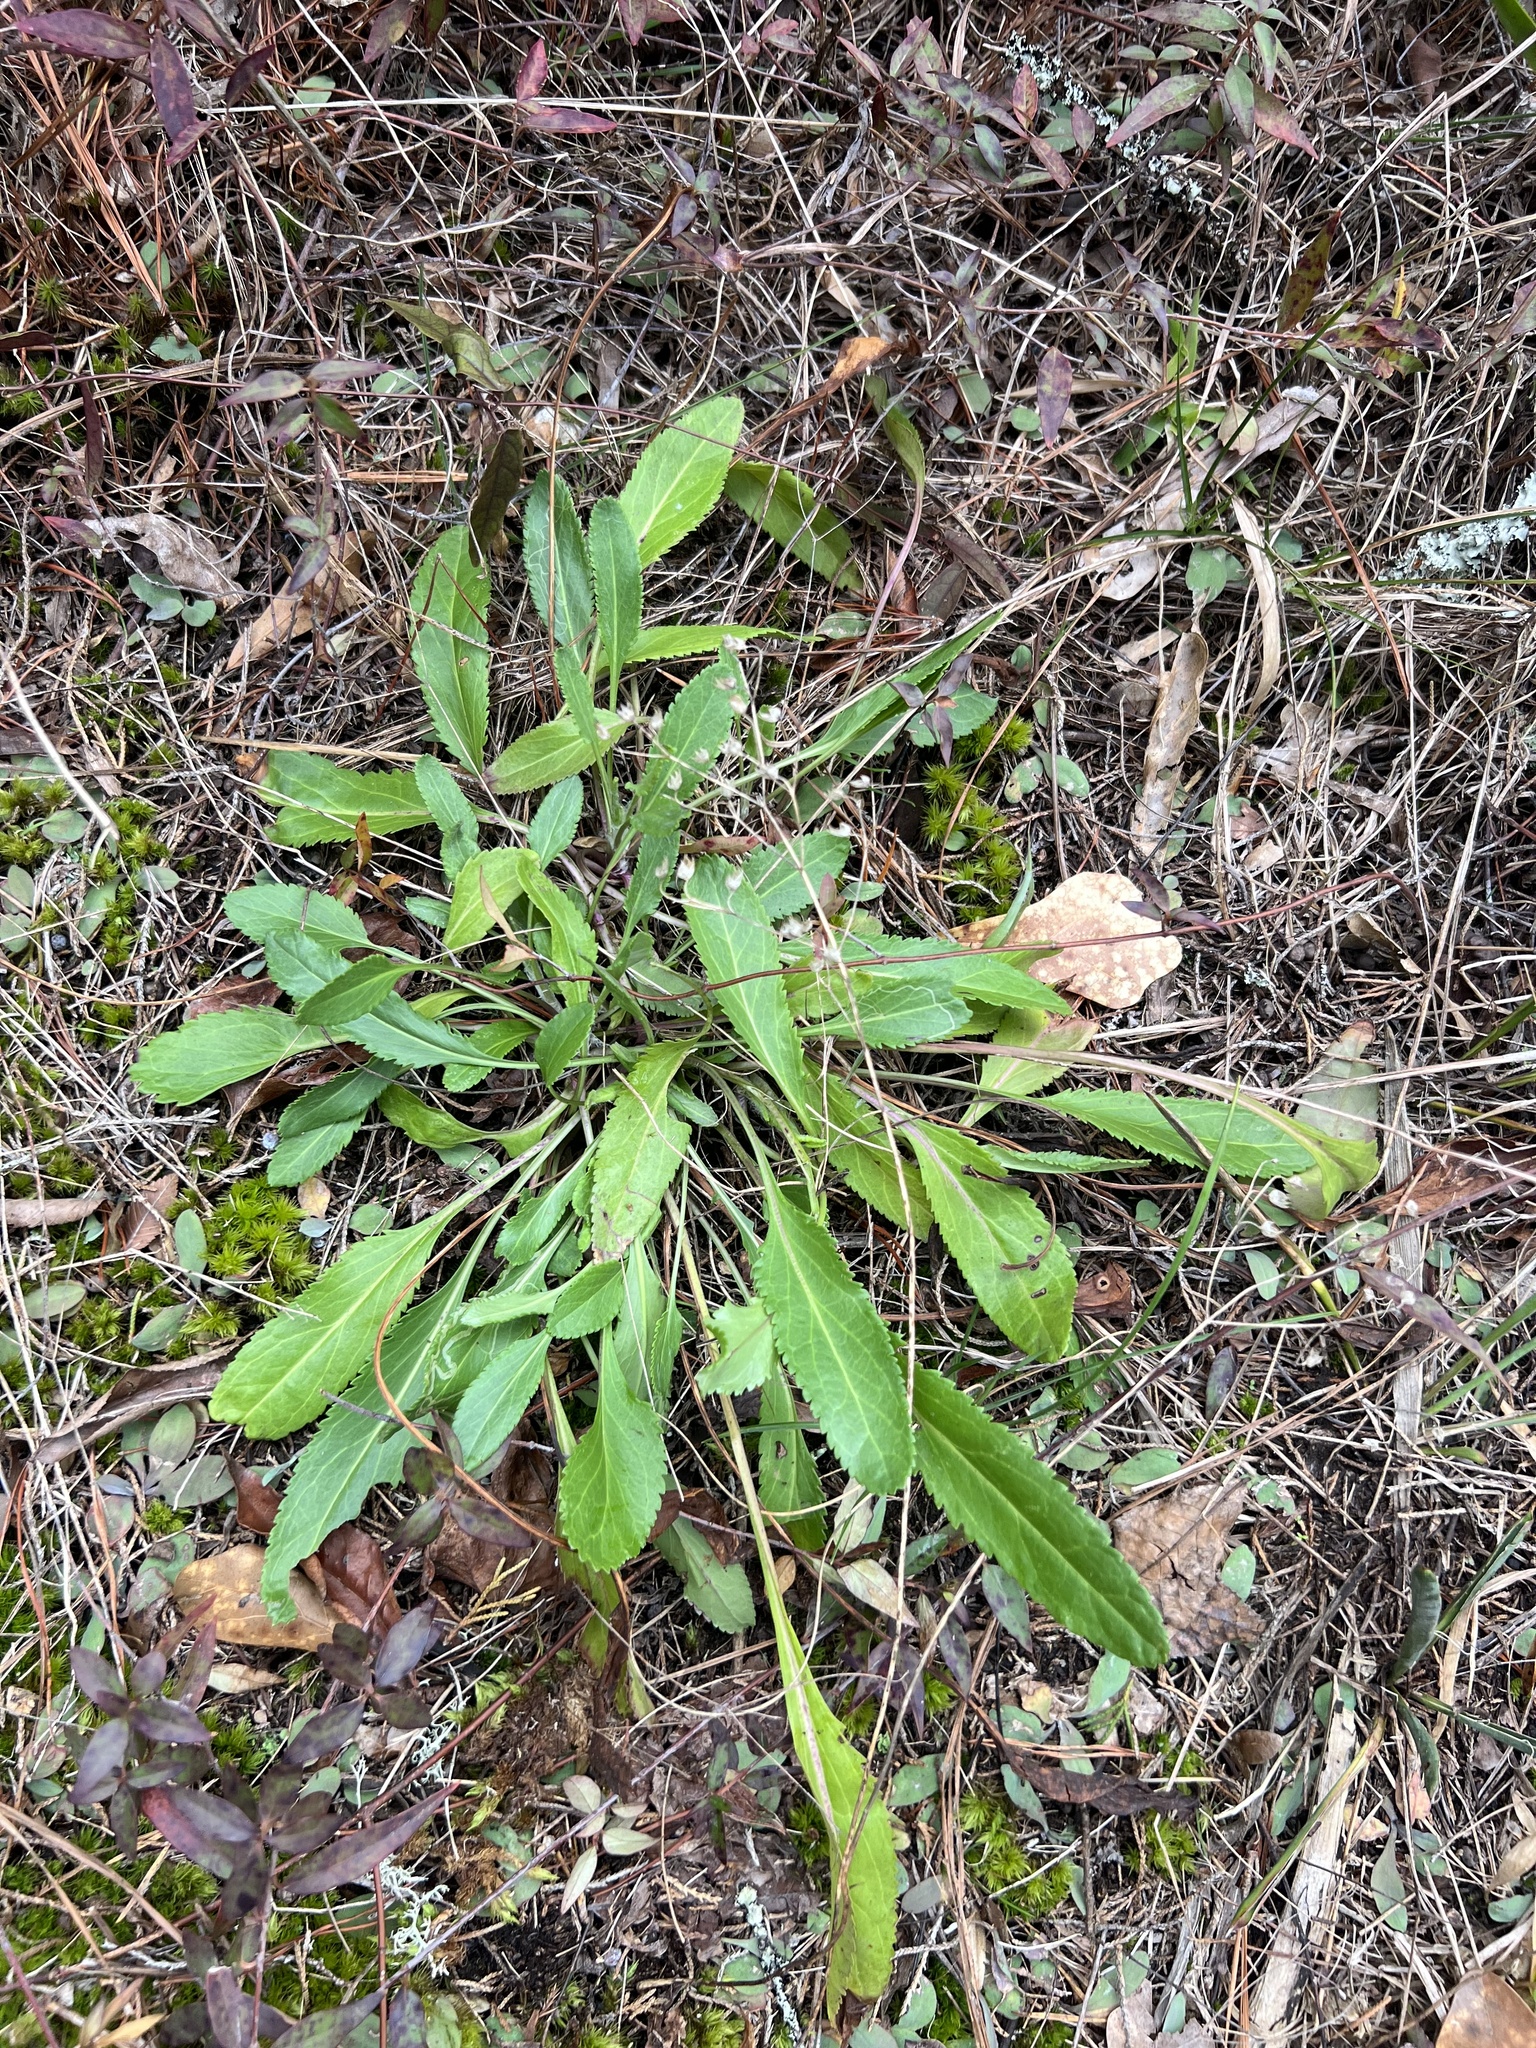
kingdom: Plantae
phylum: Tracheophyta
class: Magnoliopsida
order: Asterales
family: Asteraceae
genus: Packera
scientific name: Packera anonyma
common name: Small ragwort
